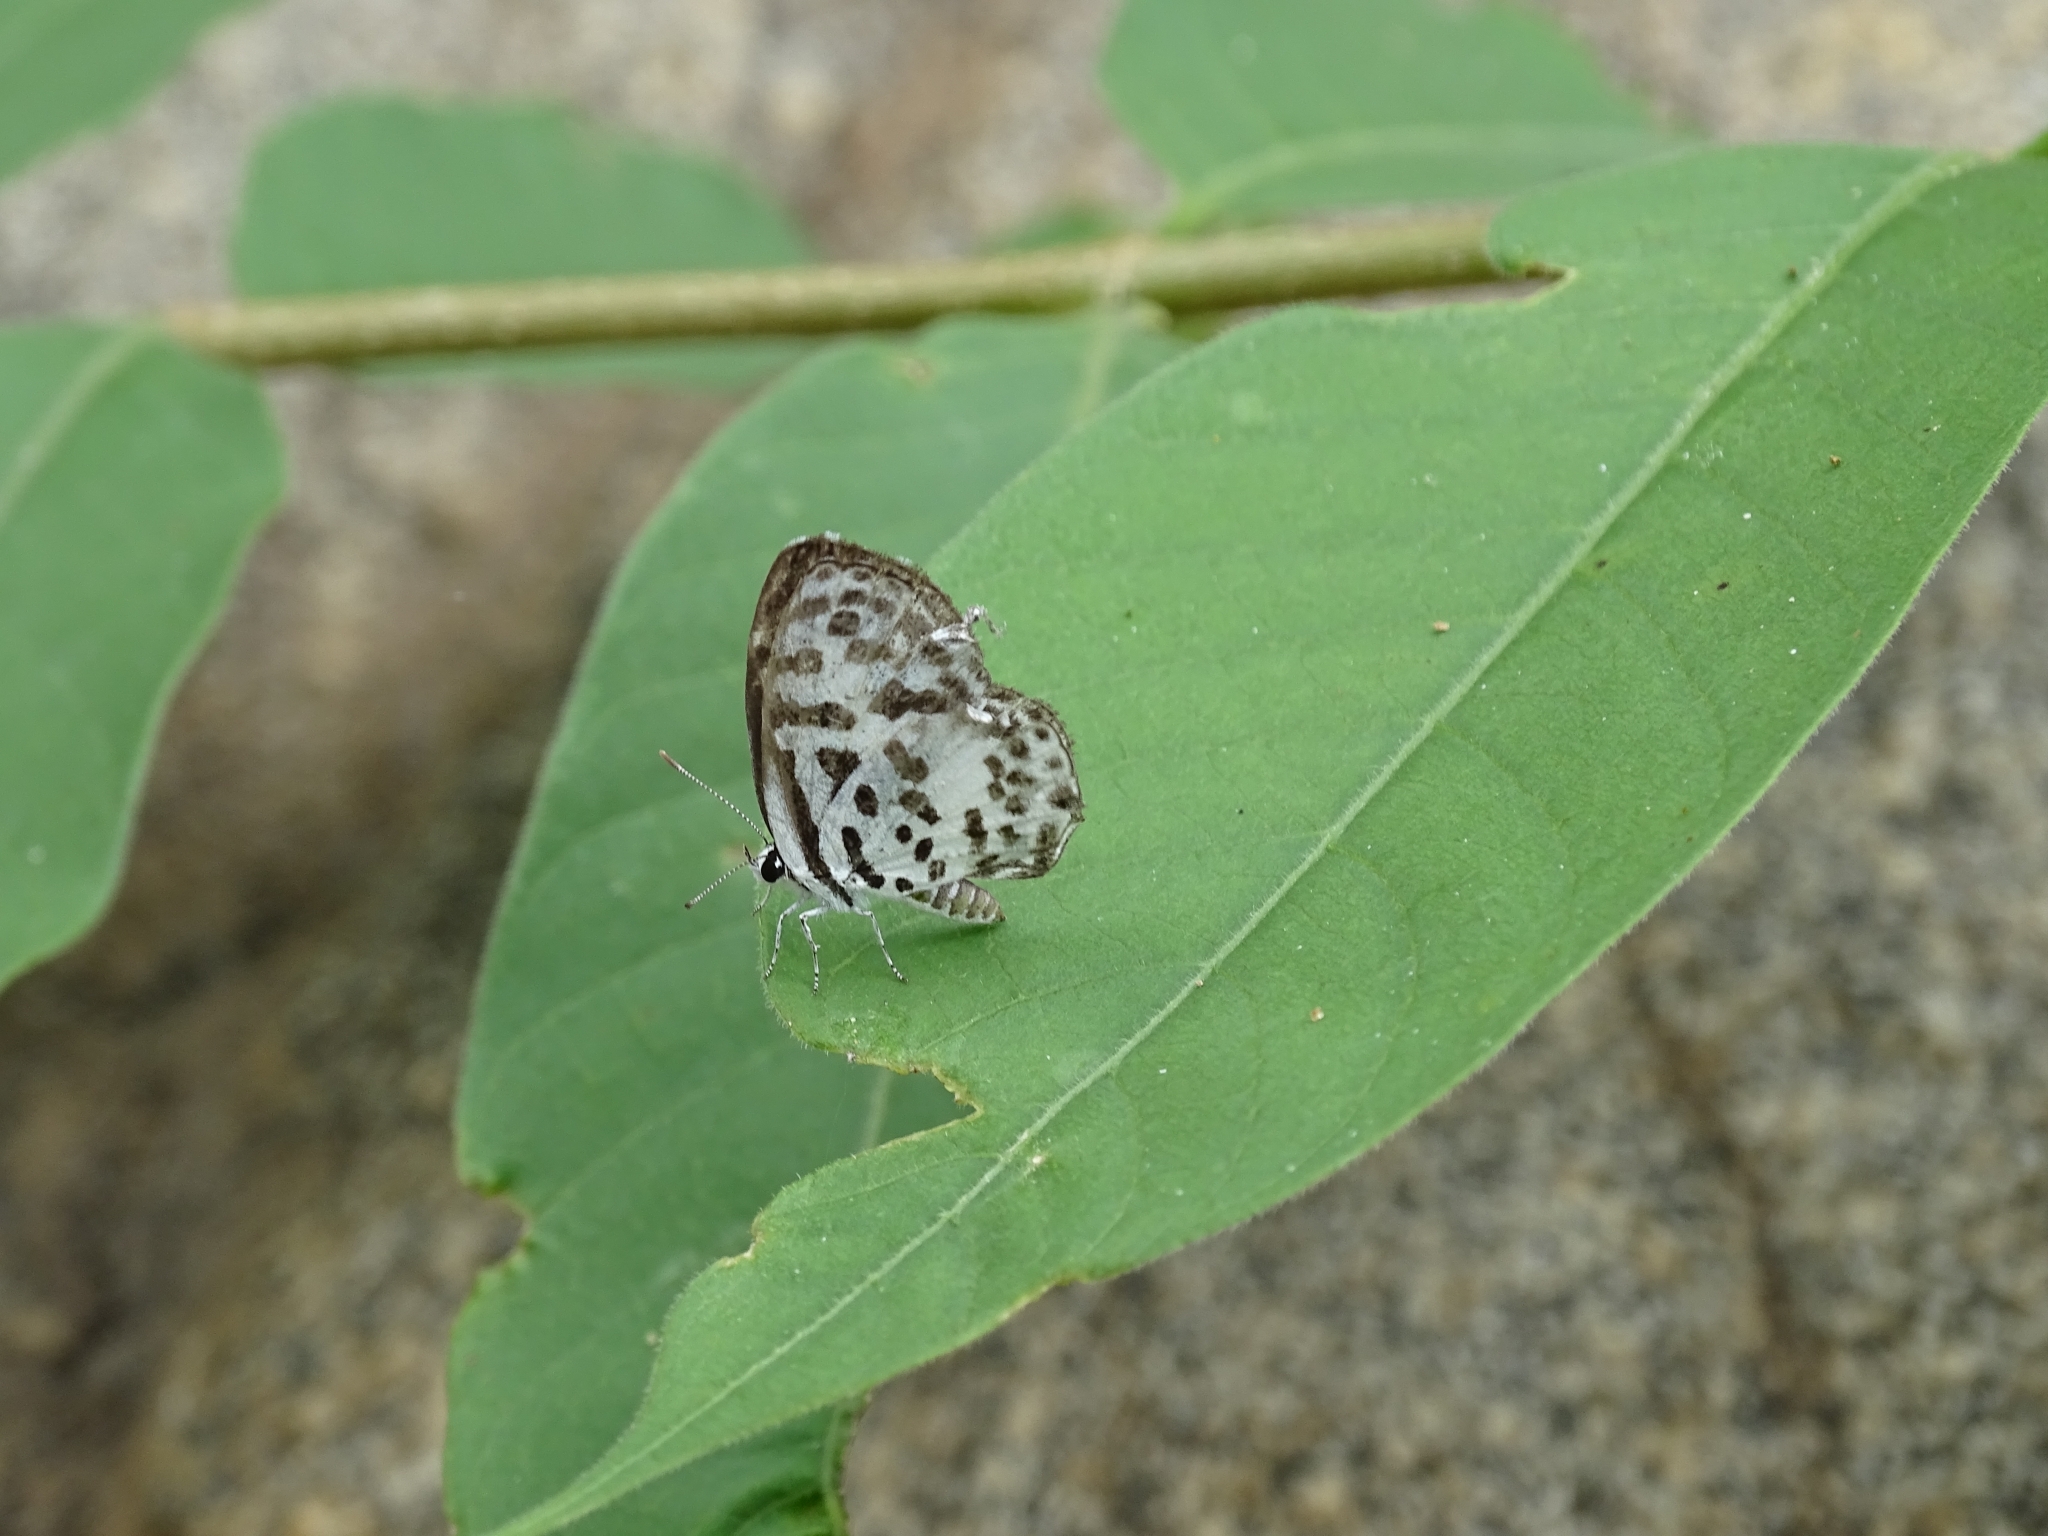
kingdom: Animalia
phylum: Arthropoda
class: Insecta
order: Lepidoptera
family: Lycaenidae
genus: Castalius
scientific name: Castalius rosimon
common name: Common pierrot
